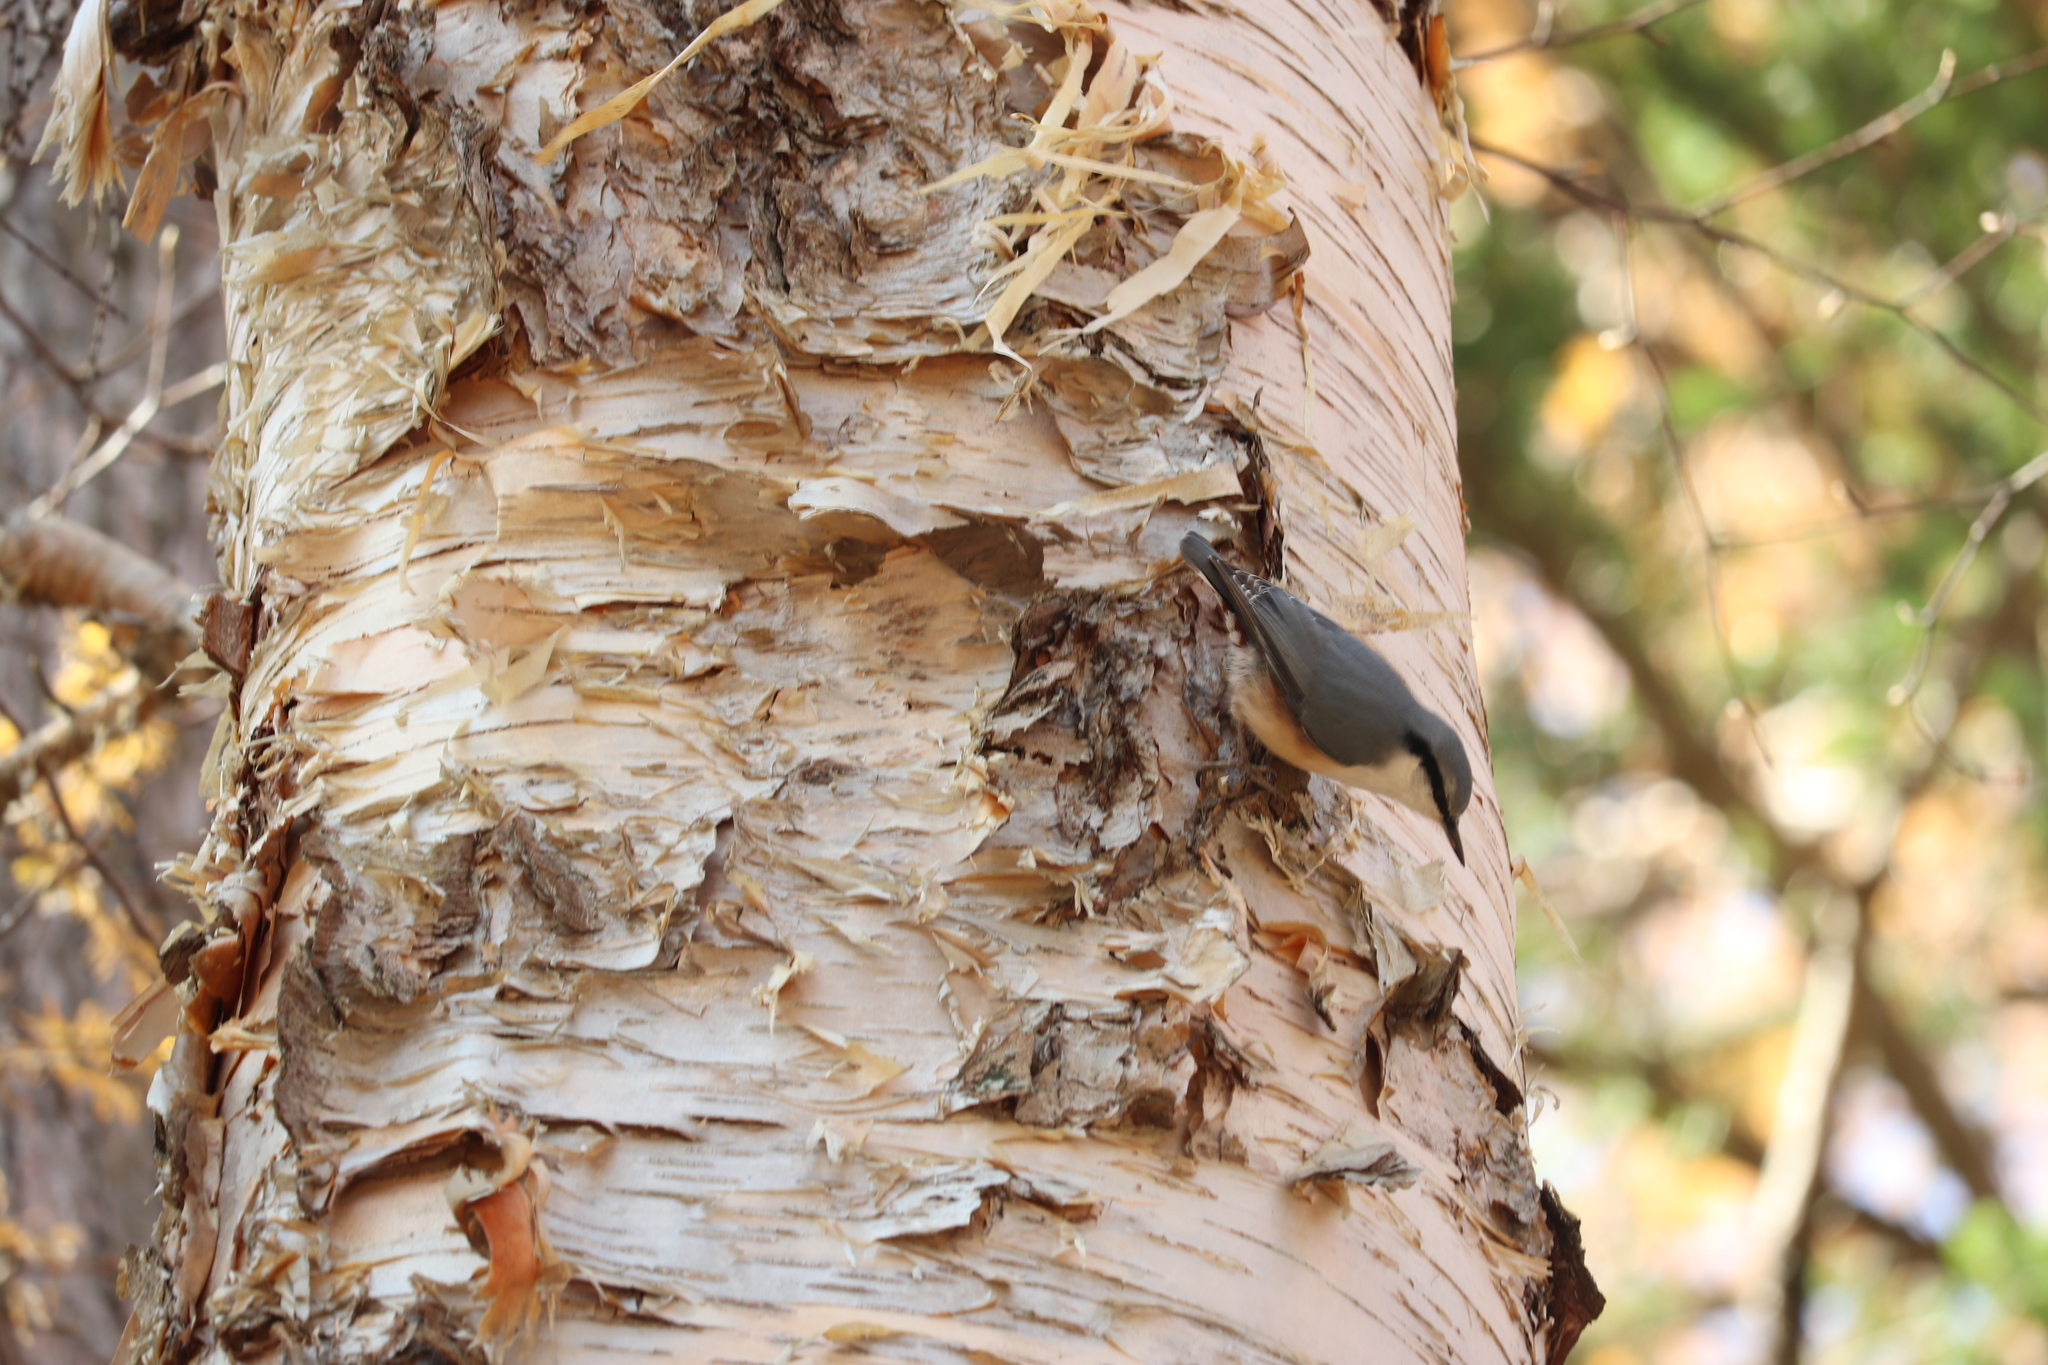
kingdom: Animalia
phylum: Chordata
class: Aves
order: Passeriformes
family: Sittidae
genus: Sitta
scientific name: Sitta europaea
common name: Eurasian nuthatch
